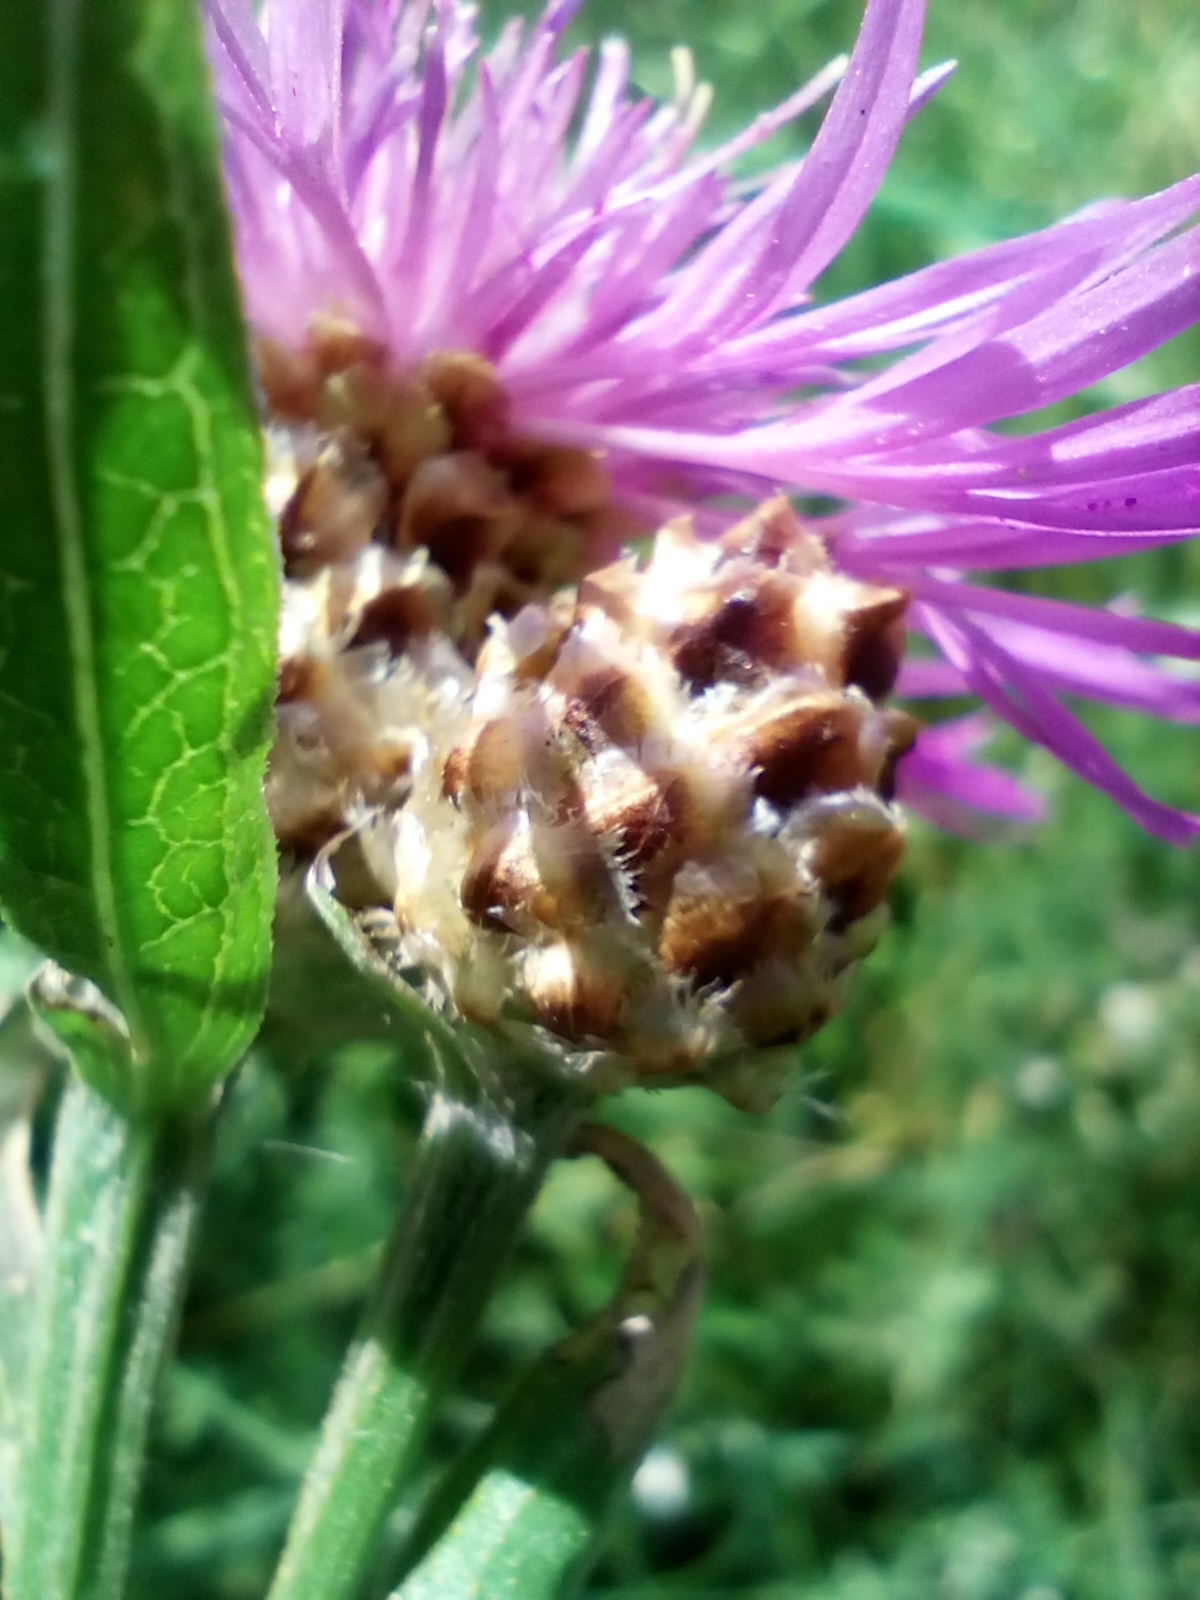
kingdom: Plantae
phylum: Tracheophyta
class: Magnoliopsida
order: Asterales
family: Asteraceae
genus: Centaurea
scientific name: Centaurea jacea
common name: Brown knapweed
